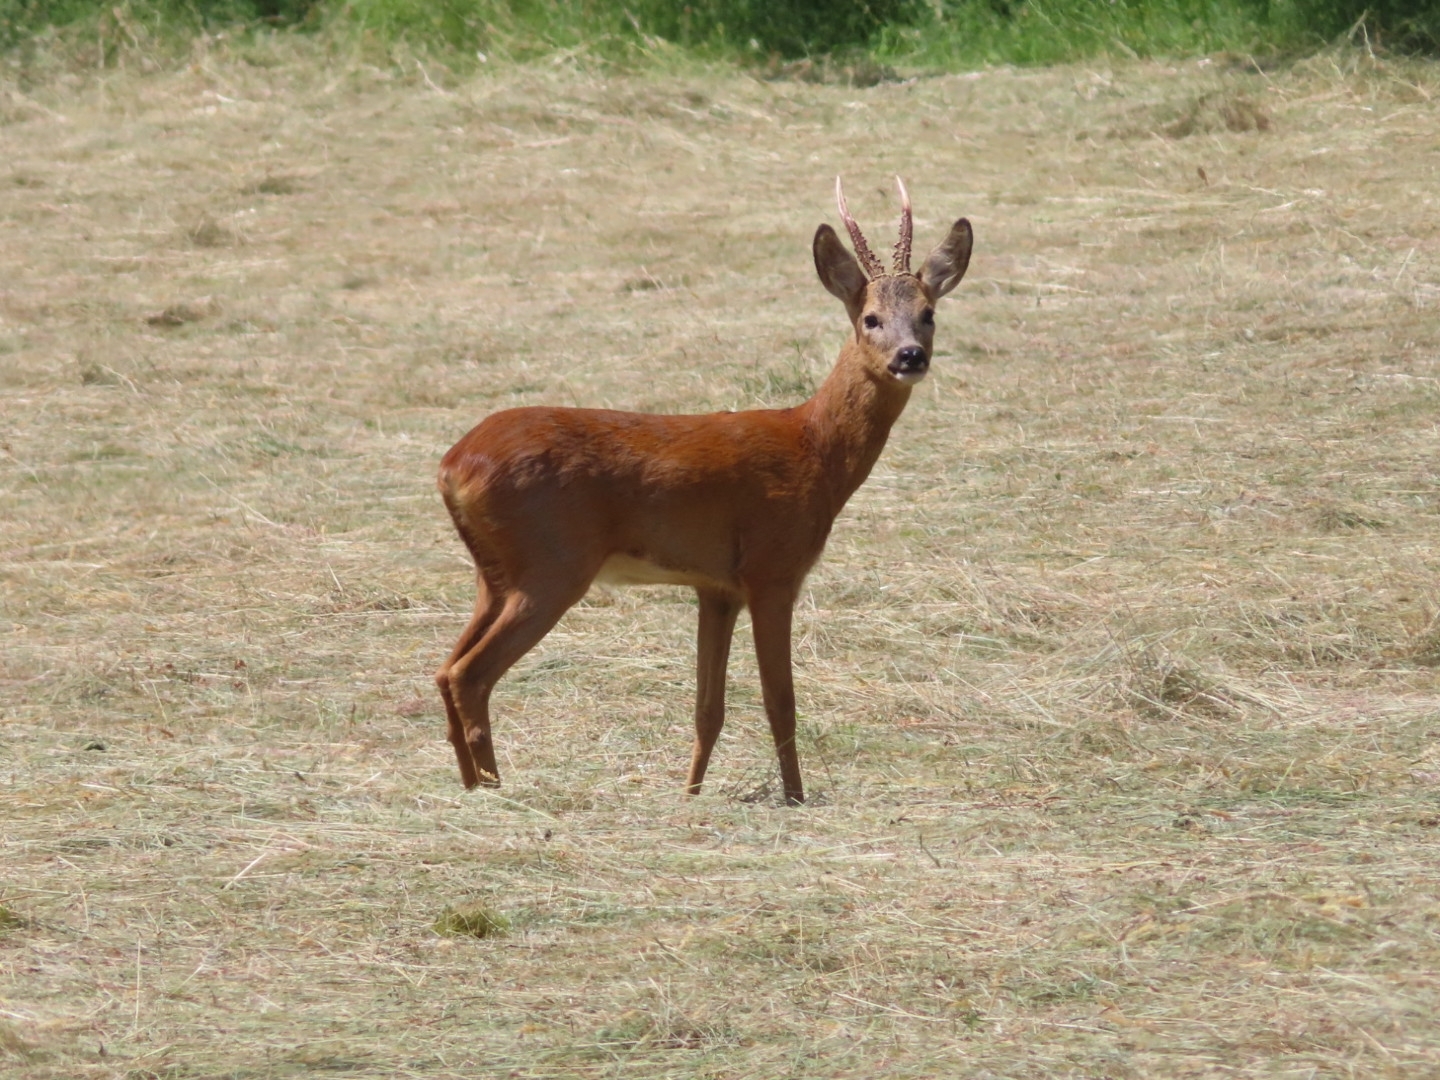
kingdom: Animalia
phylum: Chordata
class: Mammalia
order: Artiodactyla
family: Cervidae
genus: Capreolus
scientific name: Capreolus capreolus
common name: Western roe deer
